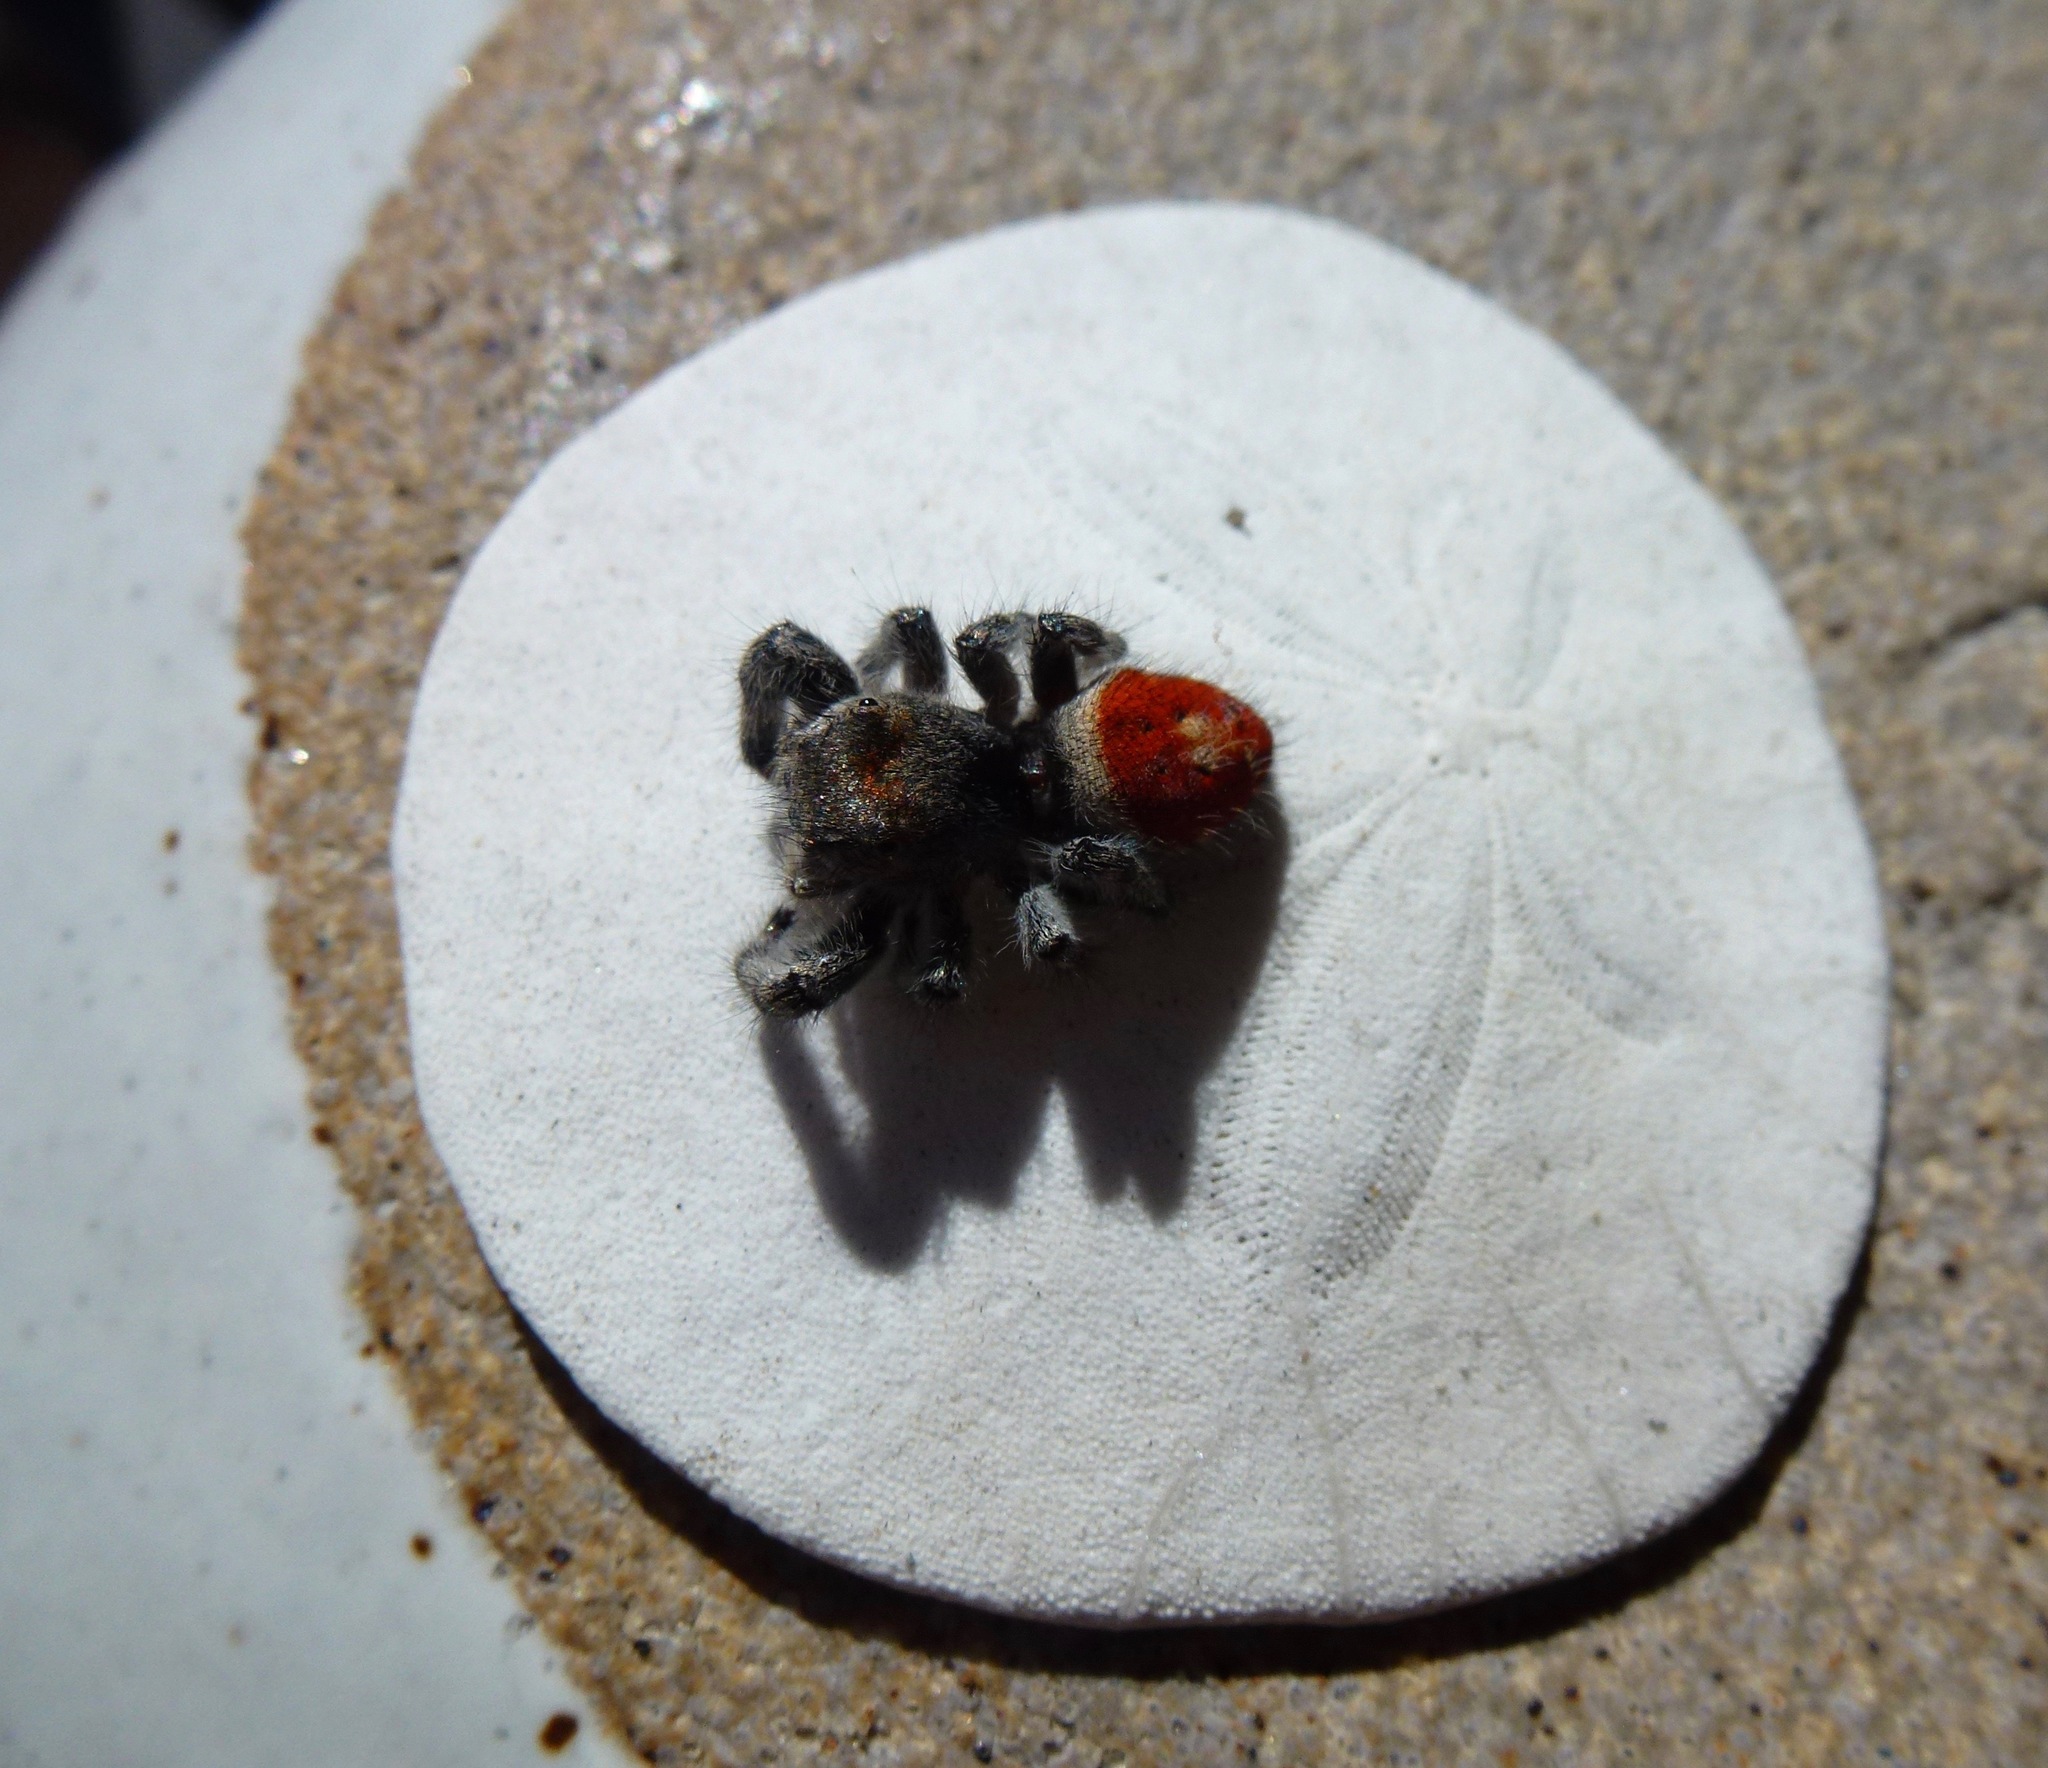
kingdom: Animalia
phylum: Arthropoda
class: Arachnida
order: Araneae
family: Salticidae
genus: Phidippus
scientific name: Phidippus adumbratus
